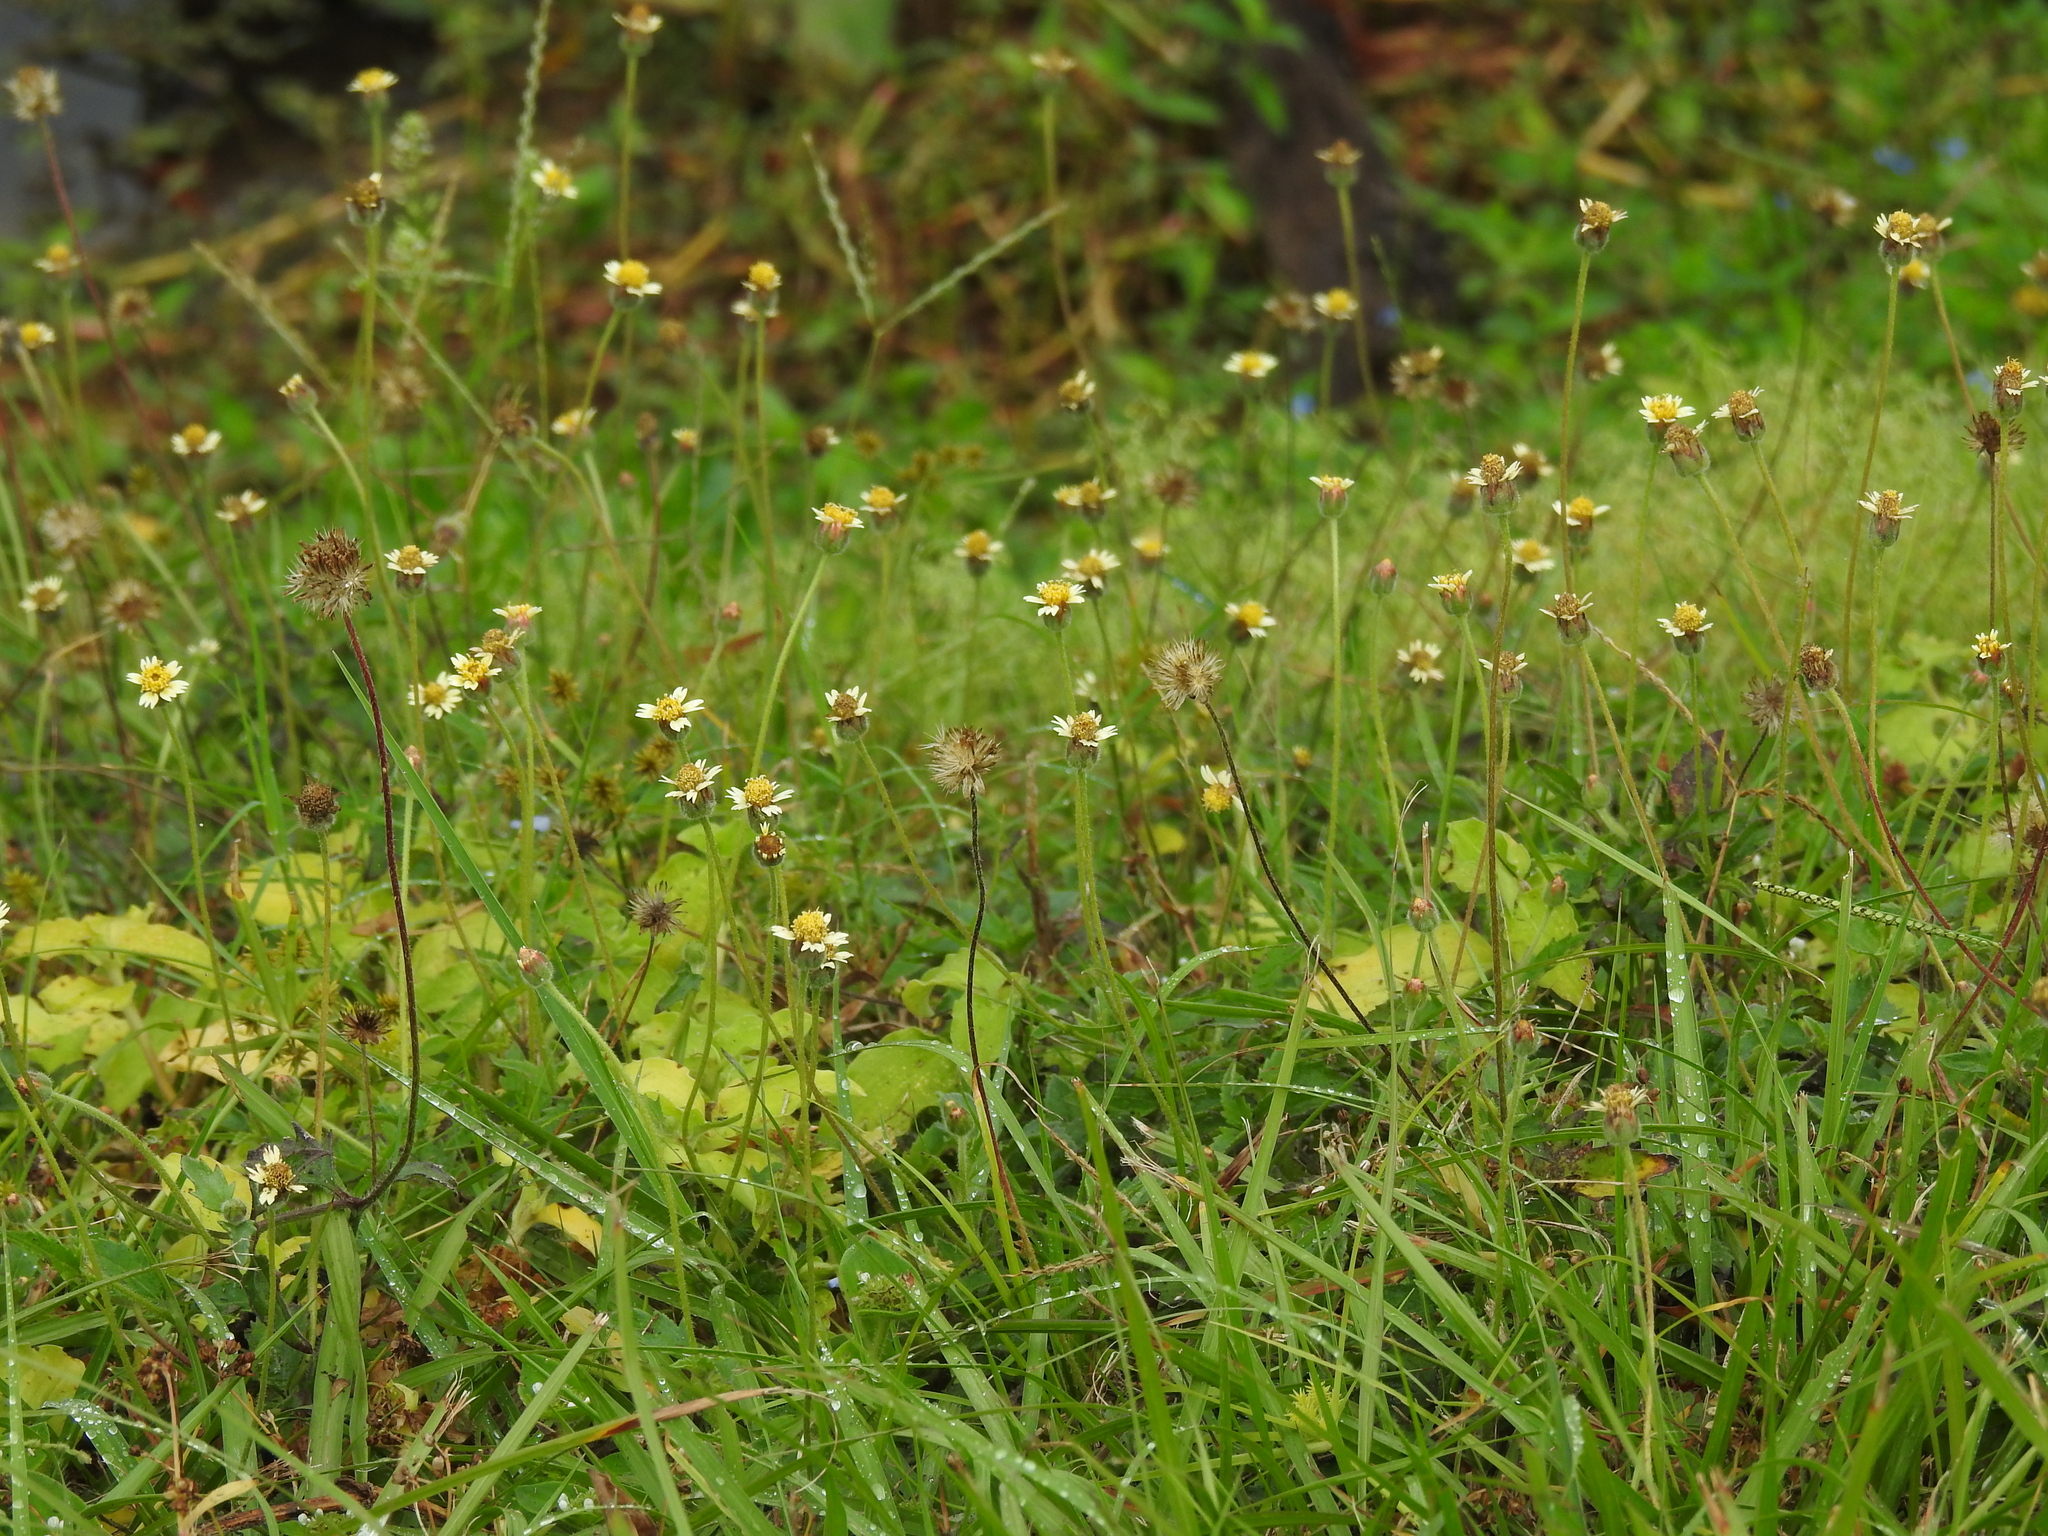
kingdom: Plantae
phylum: Tracheophyta
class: Magnoliopsida
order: Asterales
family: Asteraceae
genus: Tridax
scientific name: Tridax procumbens
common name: Coatbuttons
